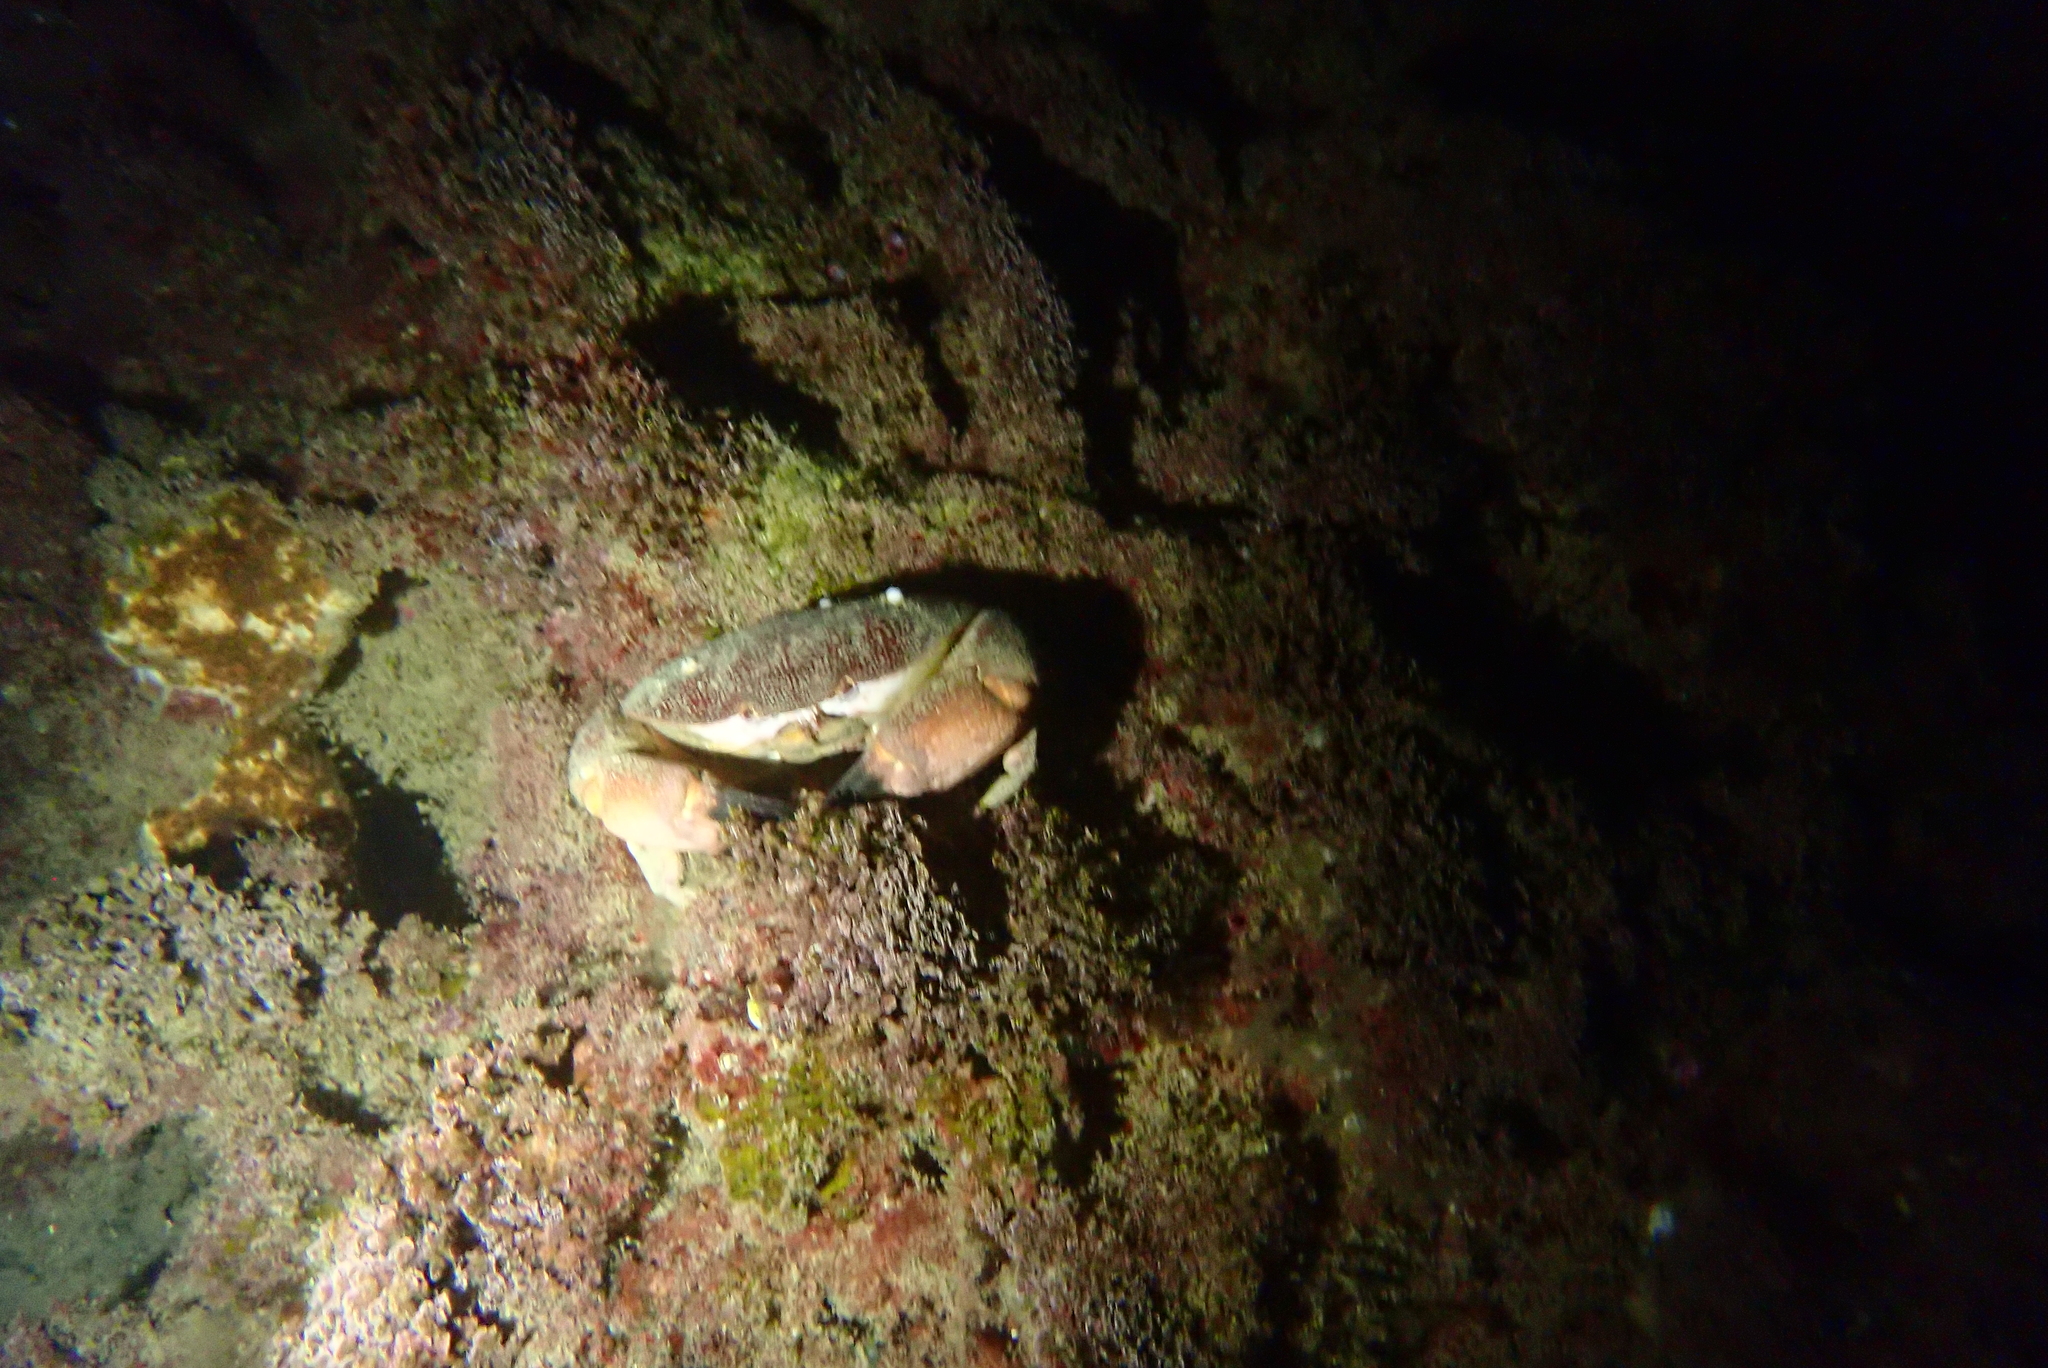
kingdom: Animalia
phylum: Arthropoda
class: Malacostraca
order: Decapoda
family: Xanthidae
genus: Atergatis
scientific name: Atergatis roseus
